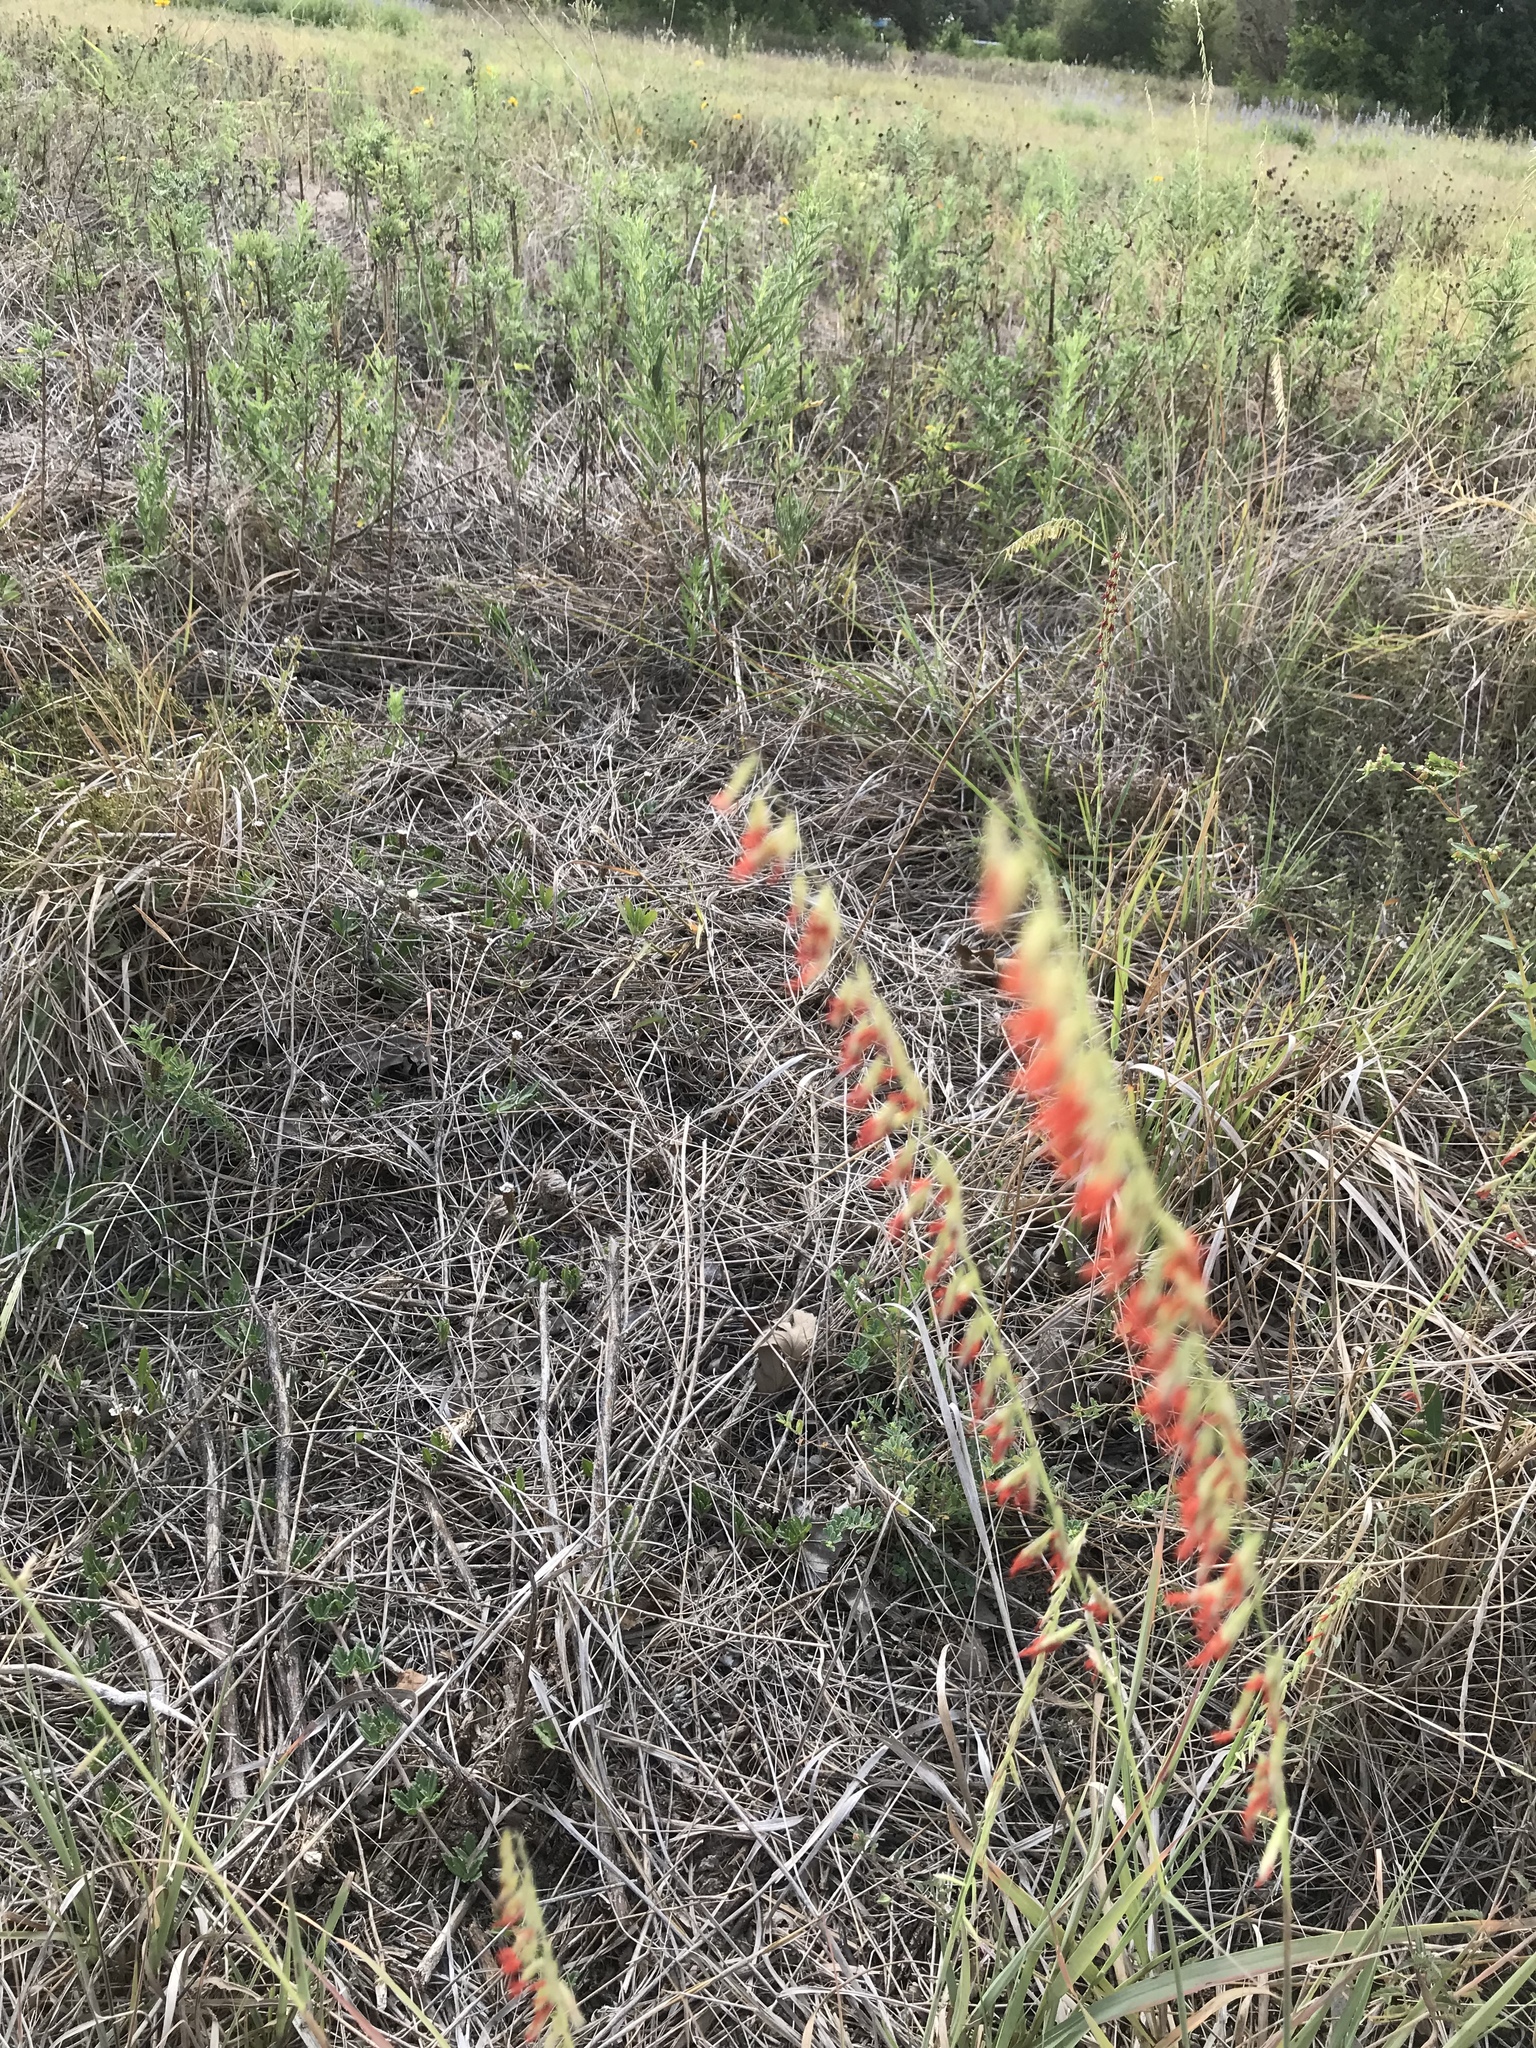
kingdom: Plantae
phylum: Tracheophyta
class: Liliopsida
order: Poales
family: Poaceae
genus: Bouteloua
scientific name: Bouteloua curtipendula
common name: Side-oats grama
